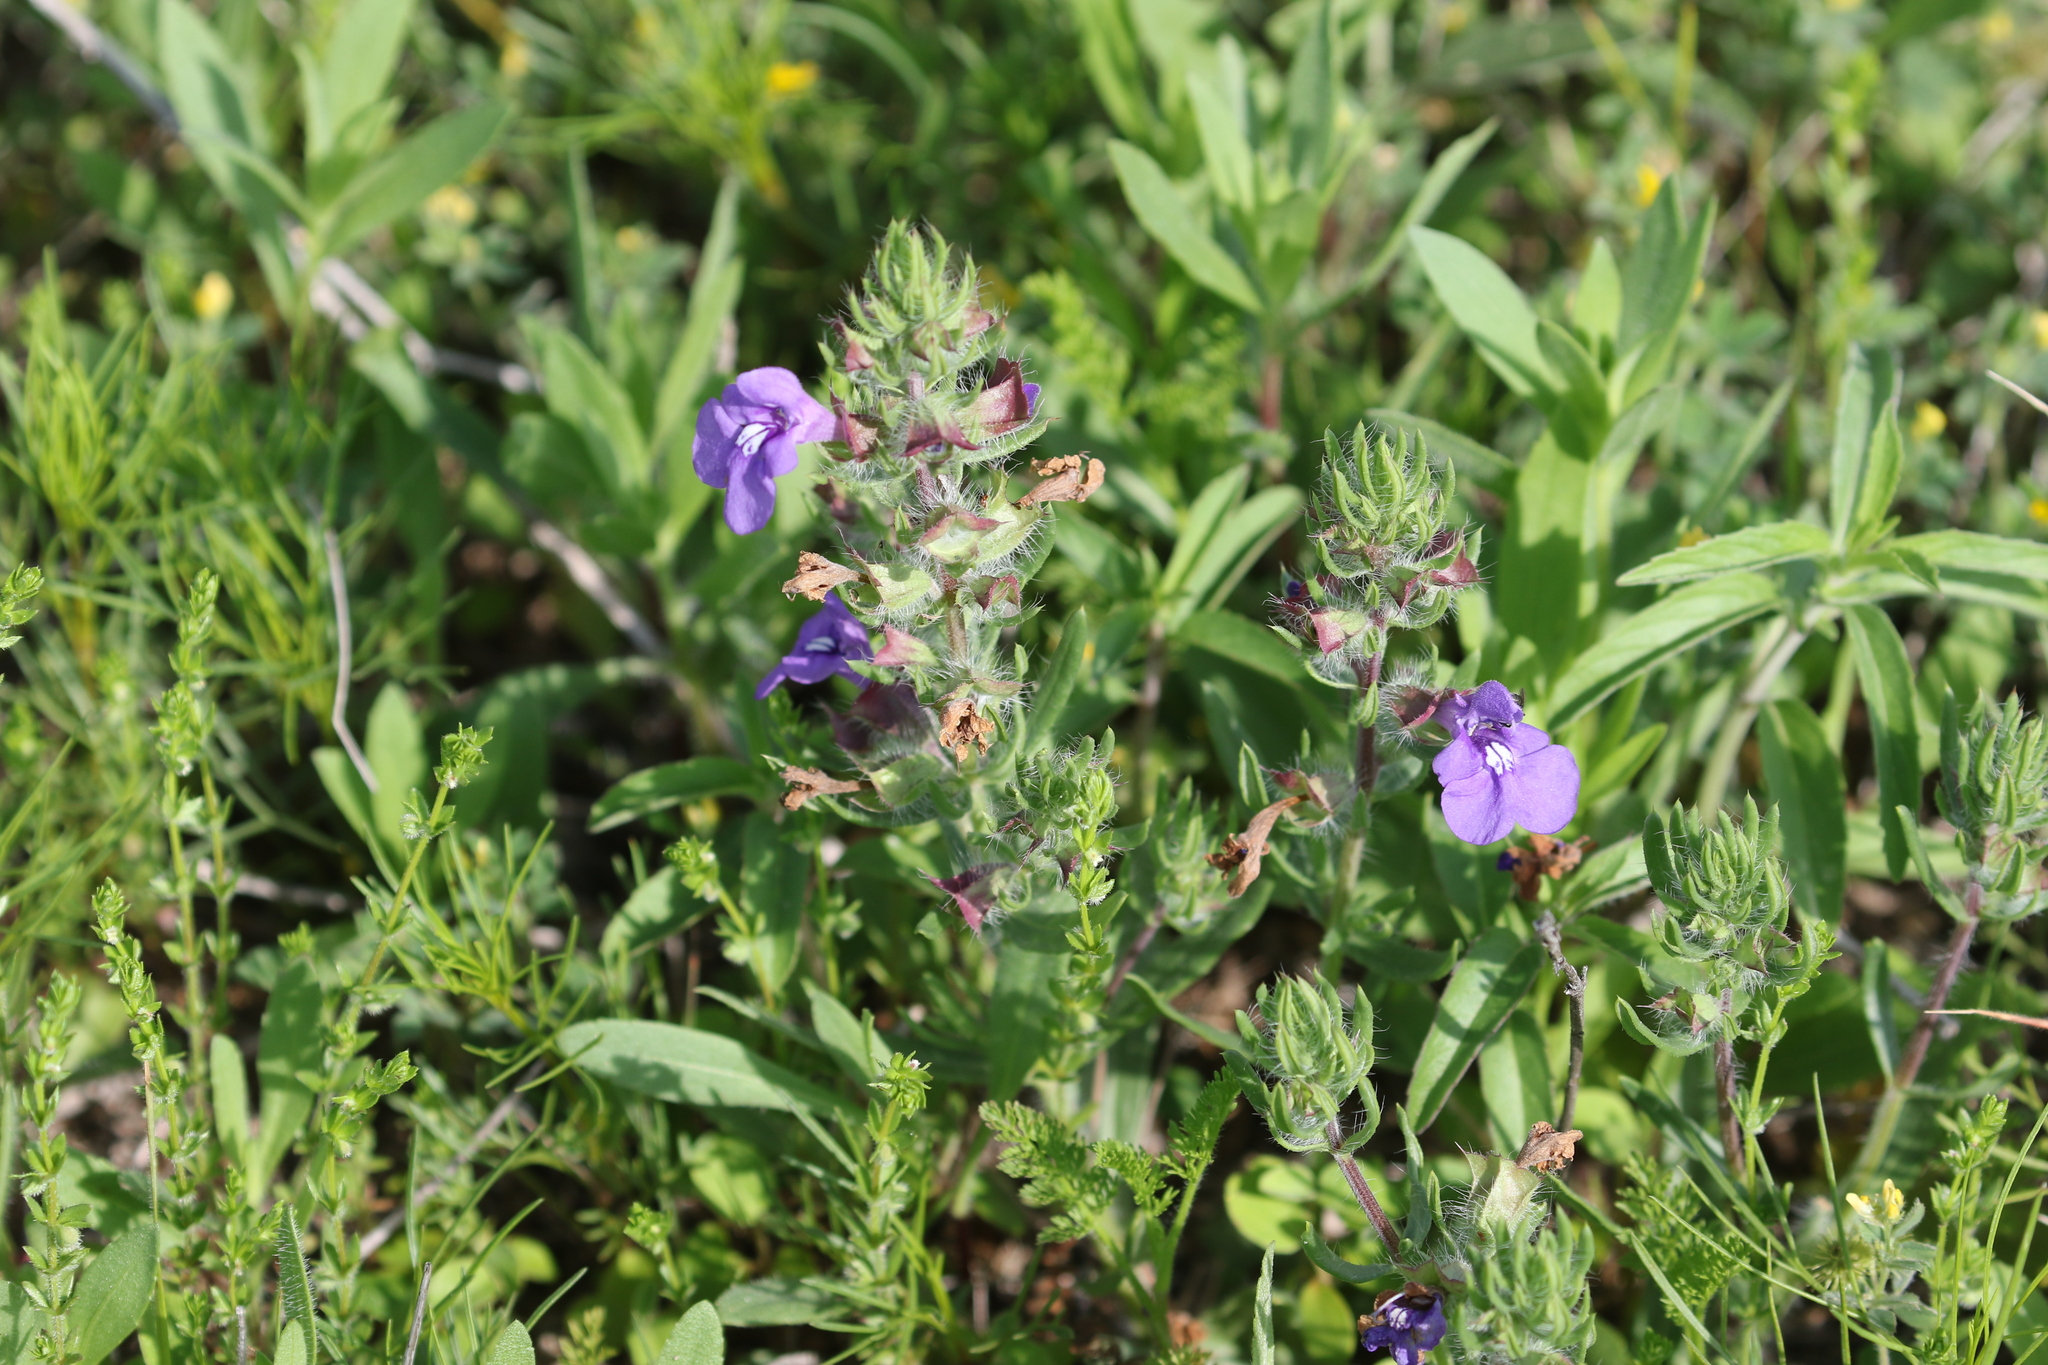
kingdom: Plantae
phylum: Tracheophyta
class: Magnoliopsida
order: Lamiales
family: Lamiaceae
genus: Salvia
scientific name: Salvia texana
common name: Texas sage
